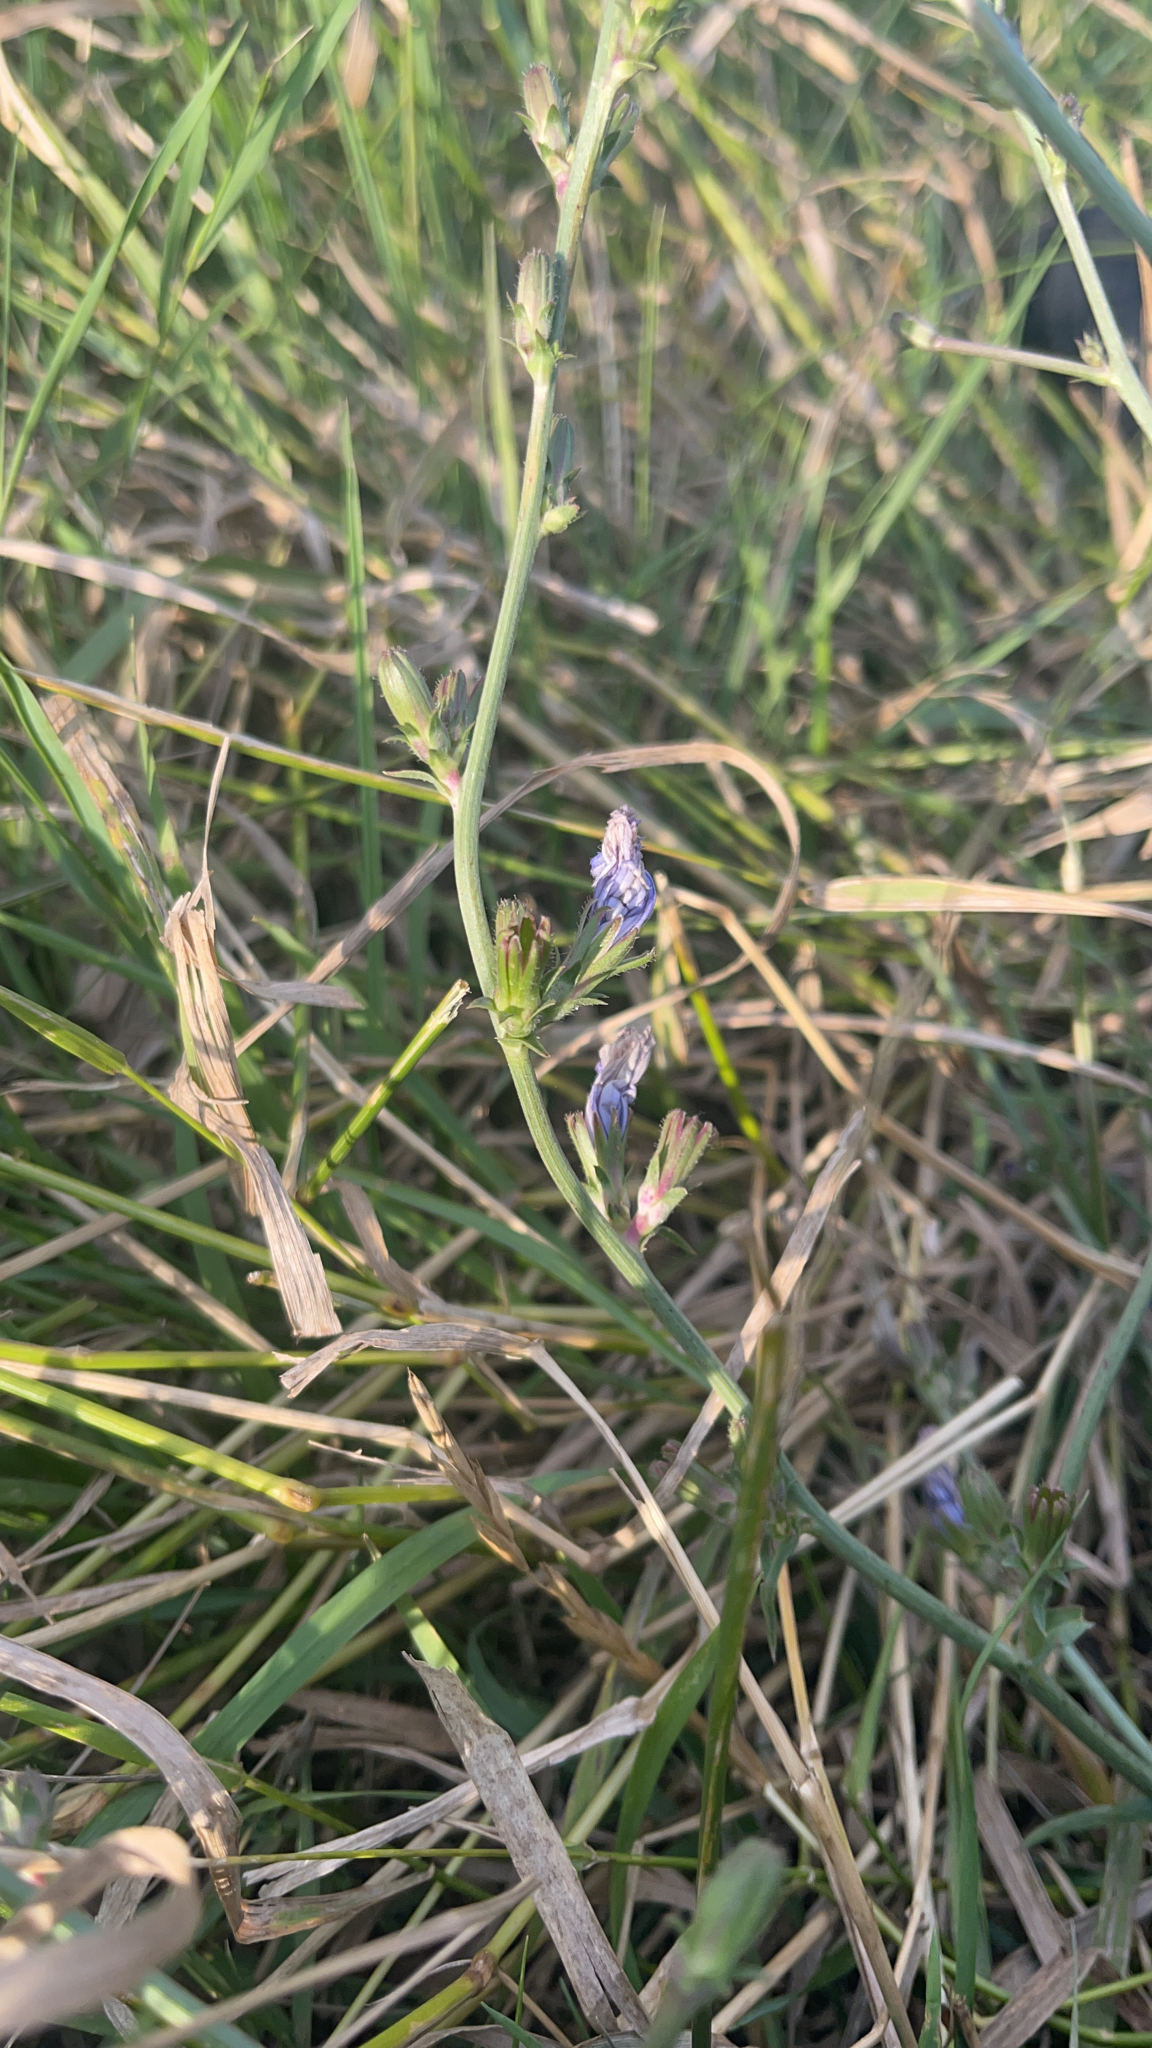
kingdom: Plantae
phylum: Tracheophyta
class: Magnoliopsida
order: Asterales
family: Asteraceae
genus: Cichorium
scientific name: Cichorium intybus
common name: Chicory
